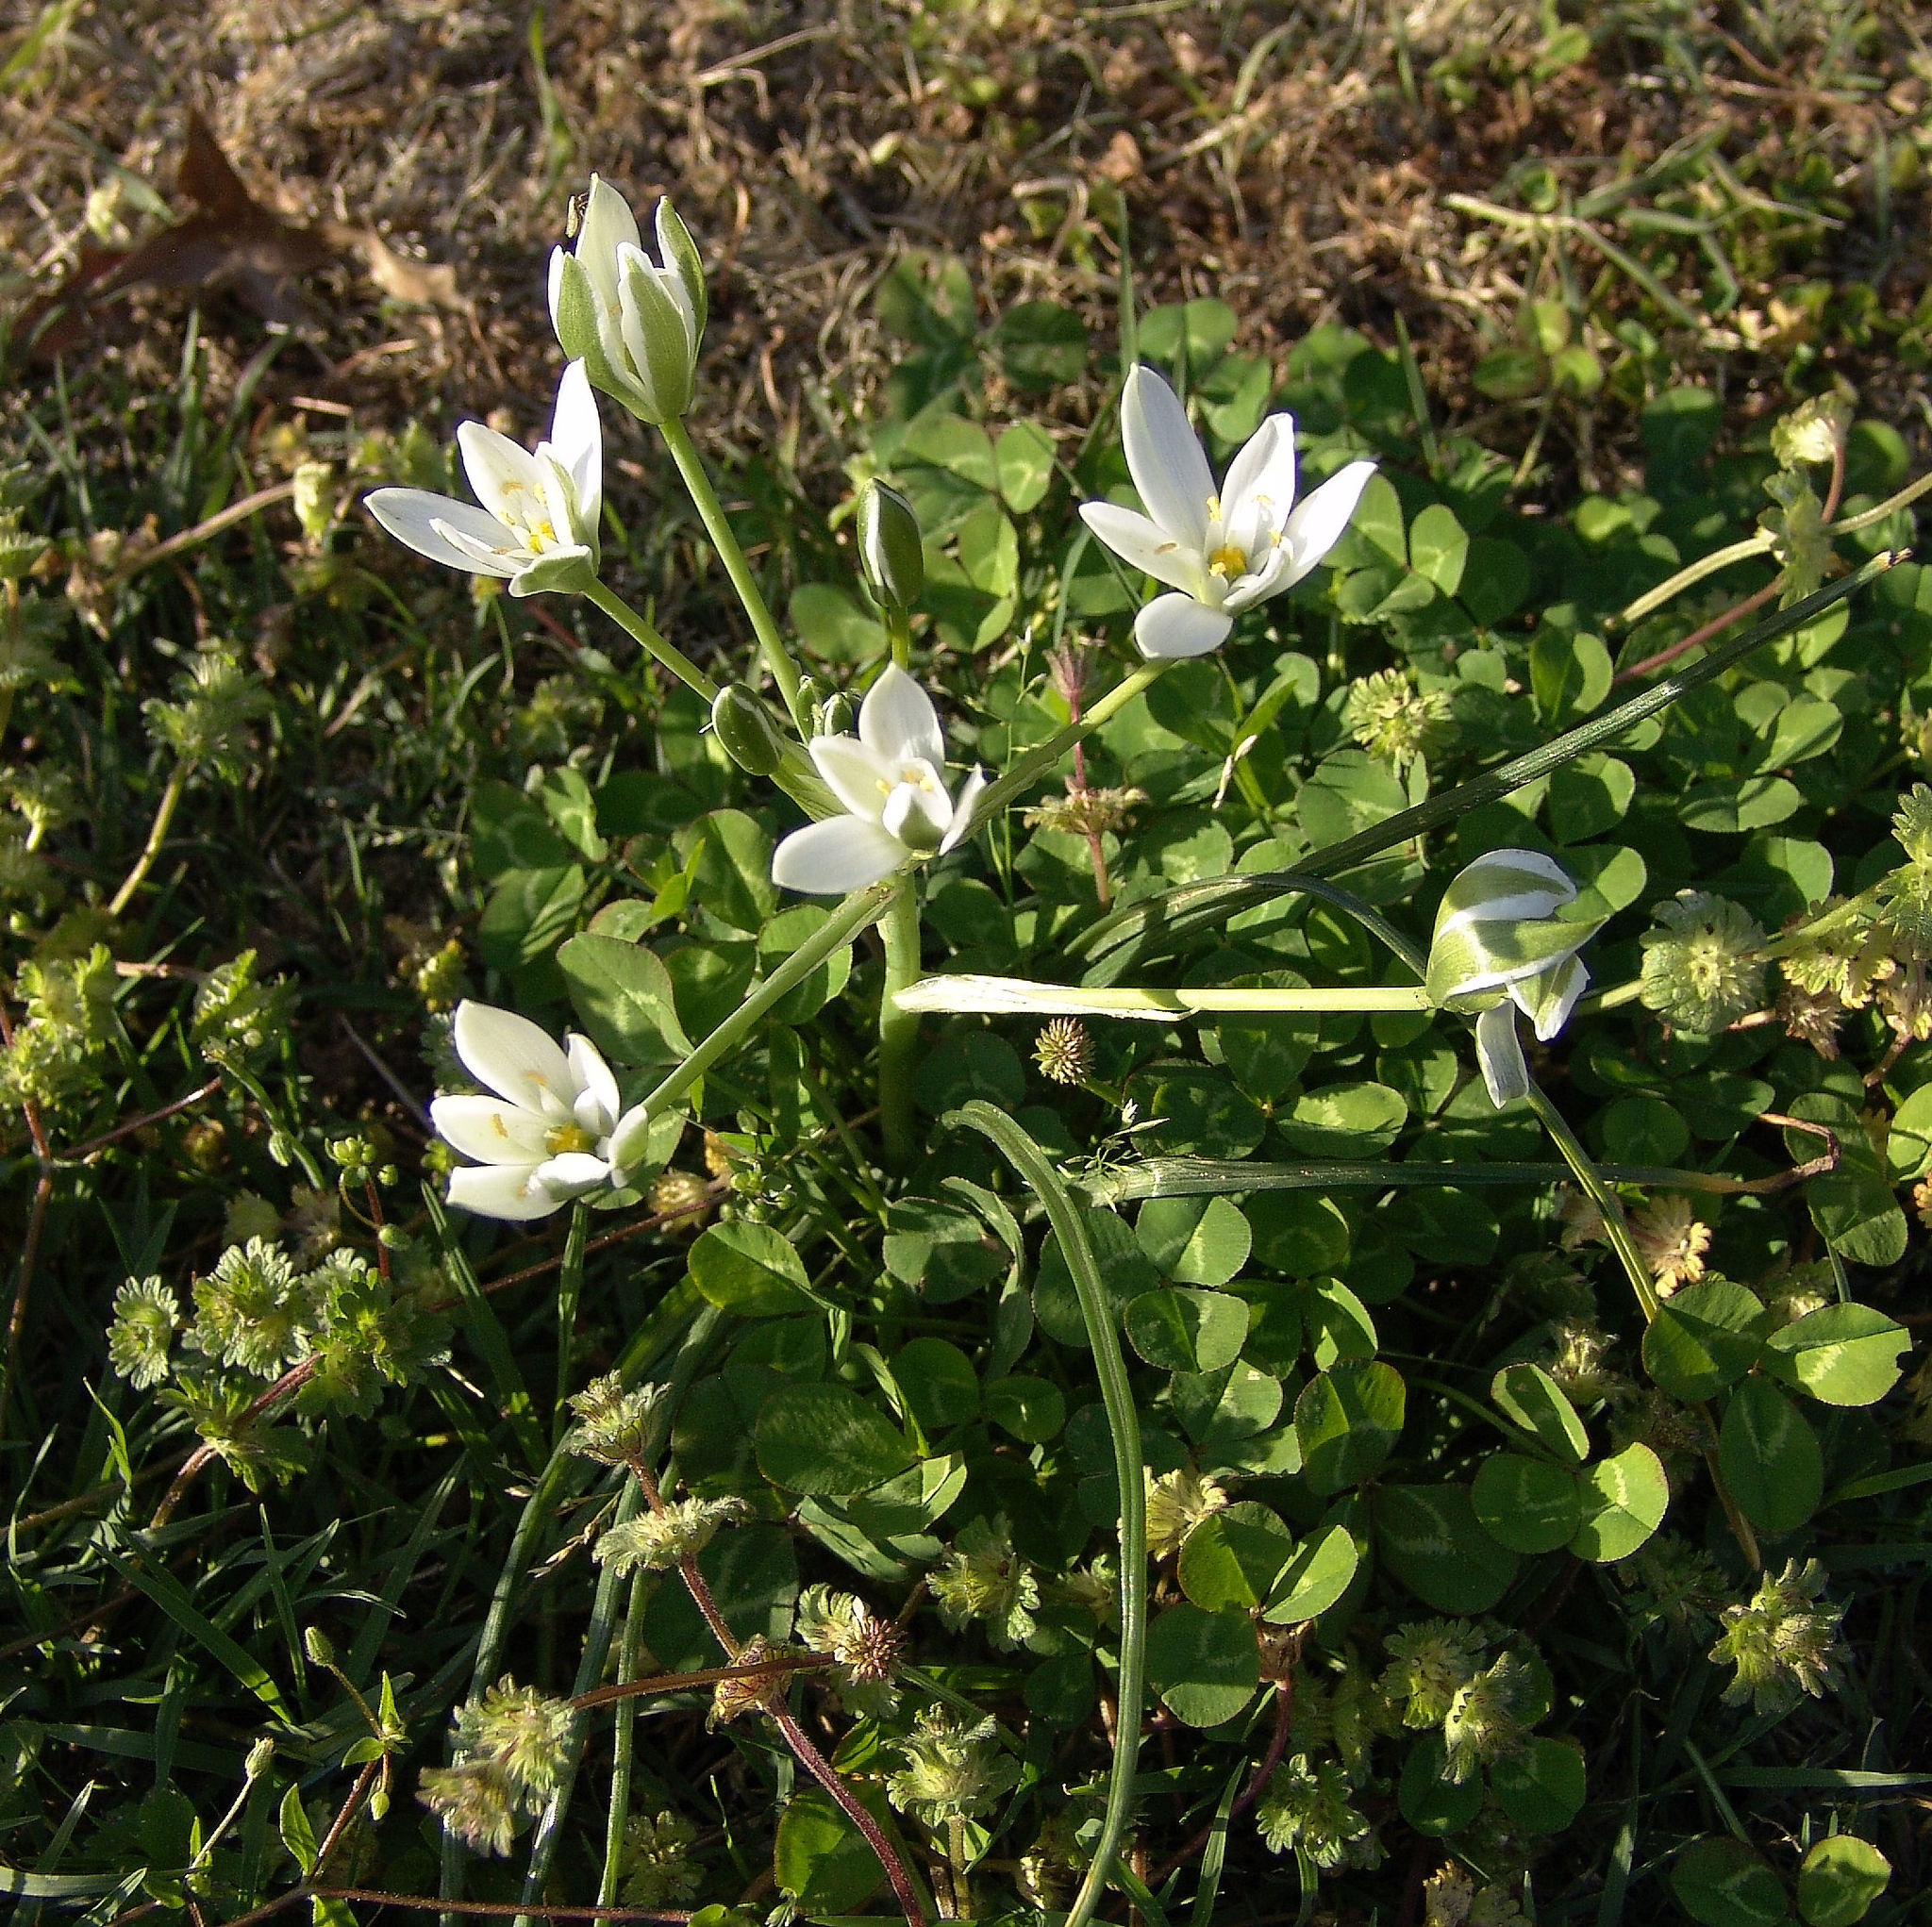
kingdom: Plantae
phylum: Tracheophyta
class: Liliopsida
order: Asparagales
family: Asparagaceae
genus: Ornithogalum
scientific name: Ornithogalum umbellatum
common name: Garden star-of-bethlehem
